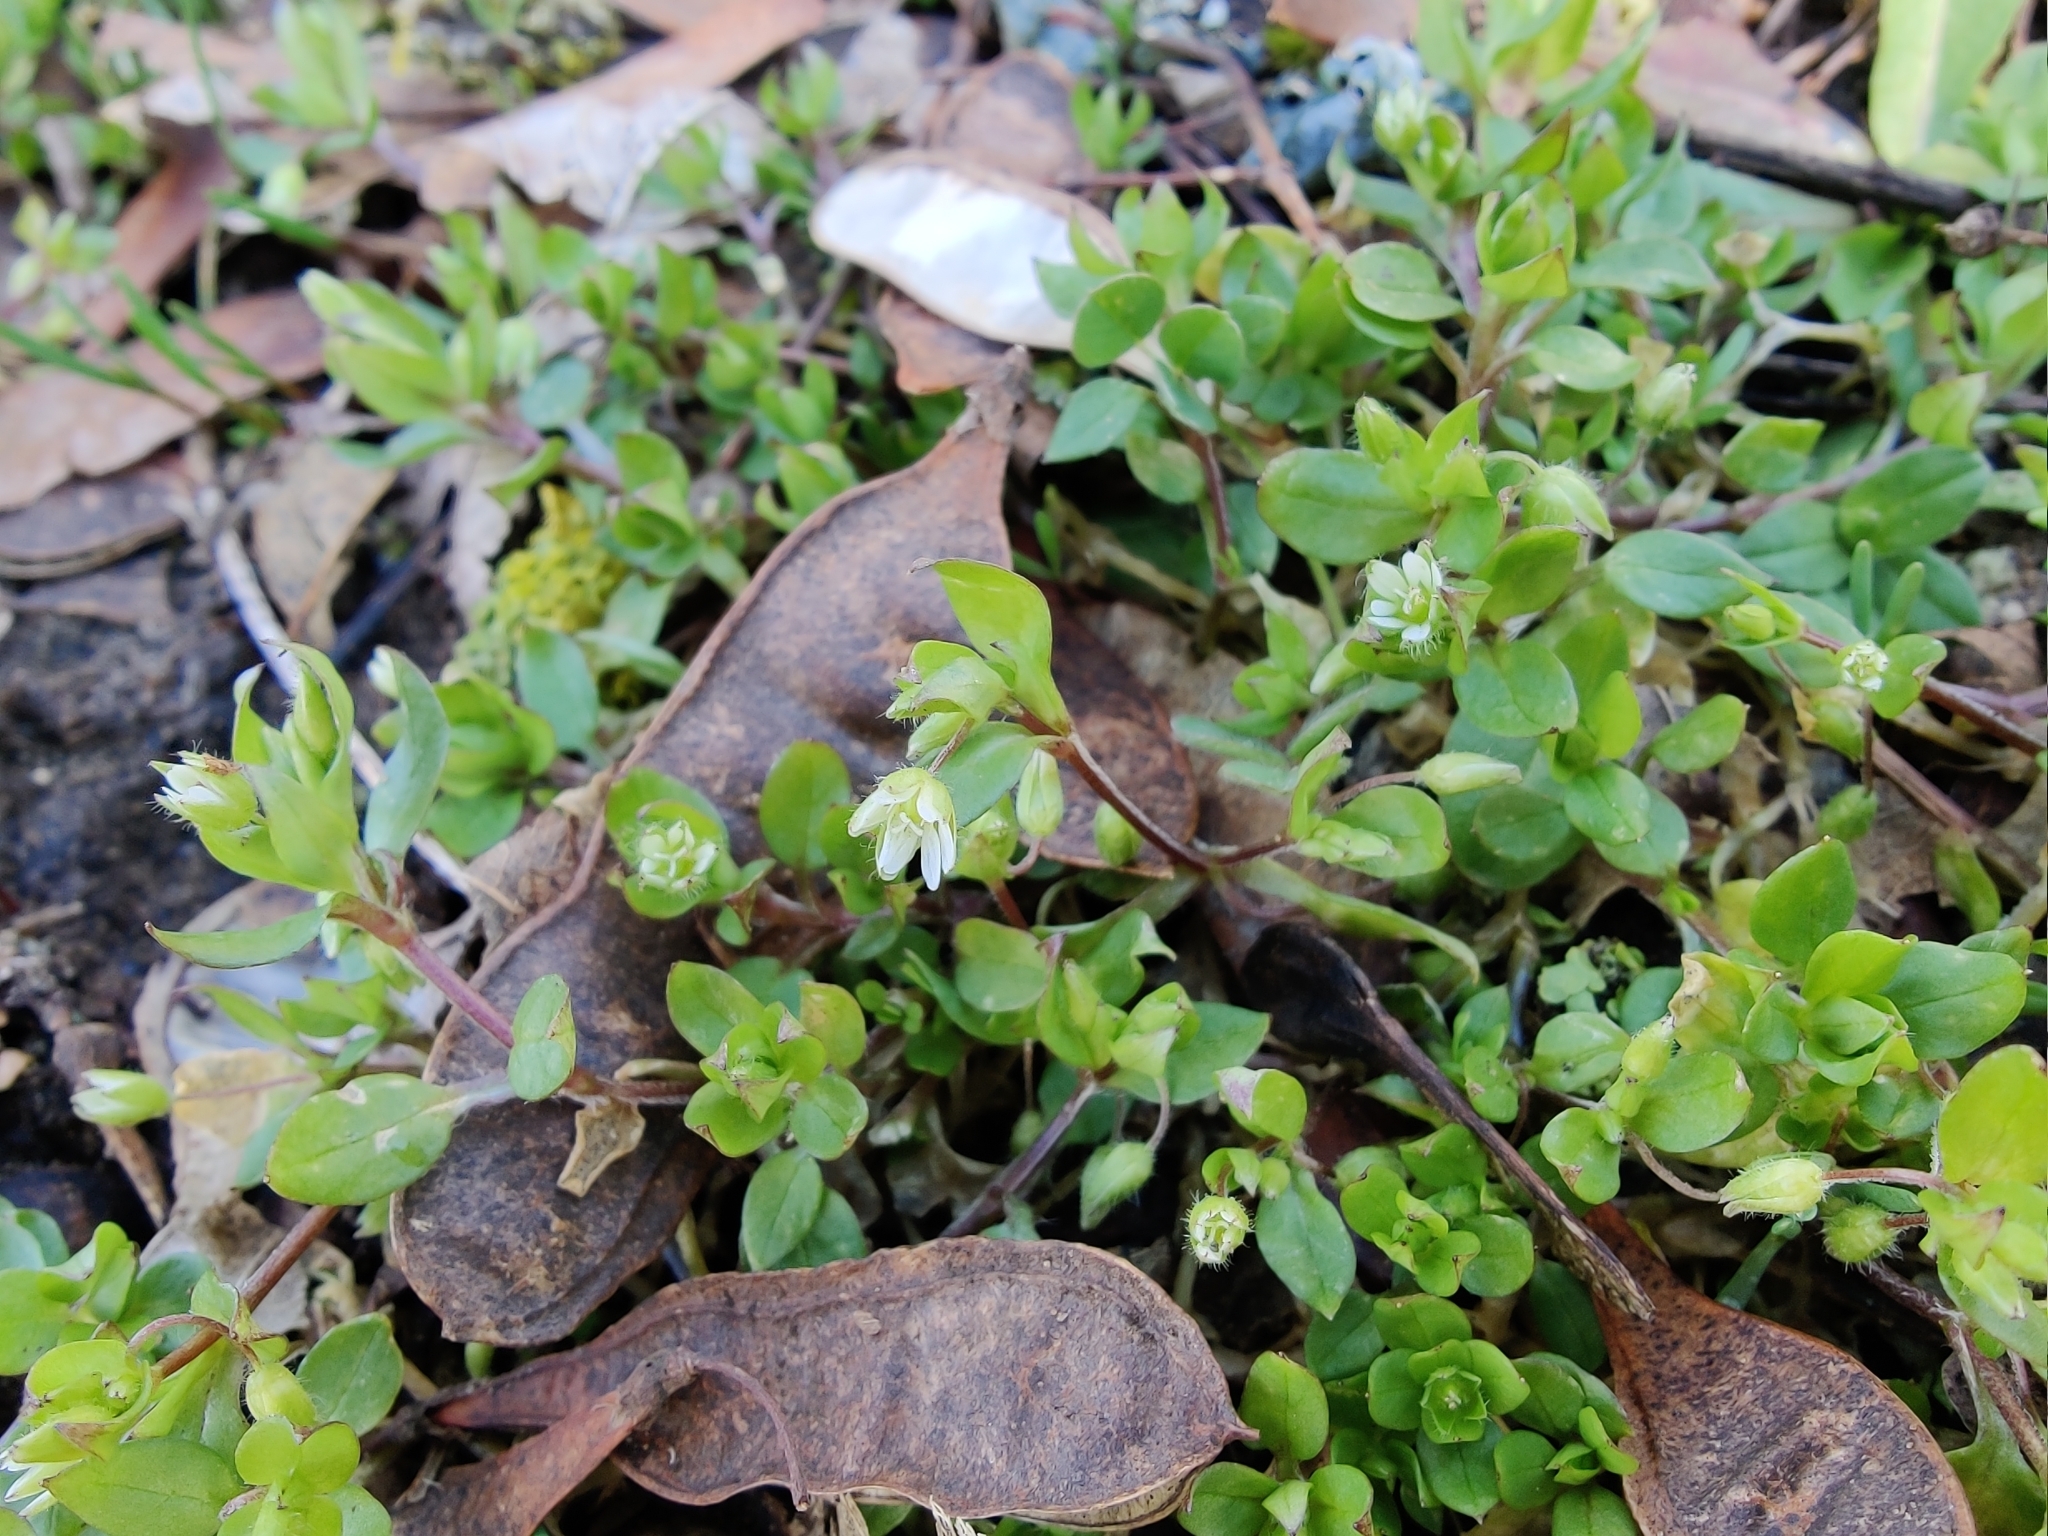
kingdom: Plantae
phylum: Tracheophyta
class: Magnoliopsida
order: Caryophyllales
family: Caryophyllaceae
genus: Stellaria
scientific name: Stellaria media
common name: Common chickweed
